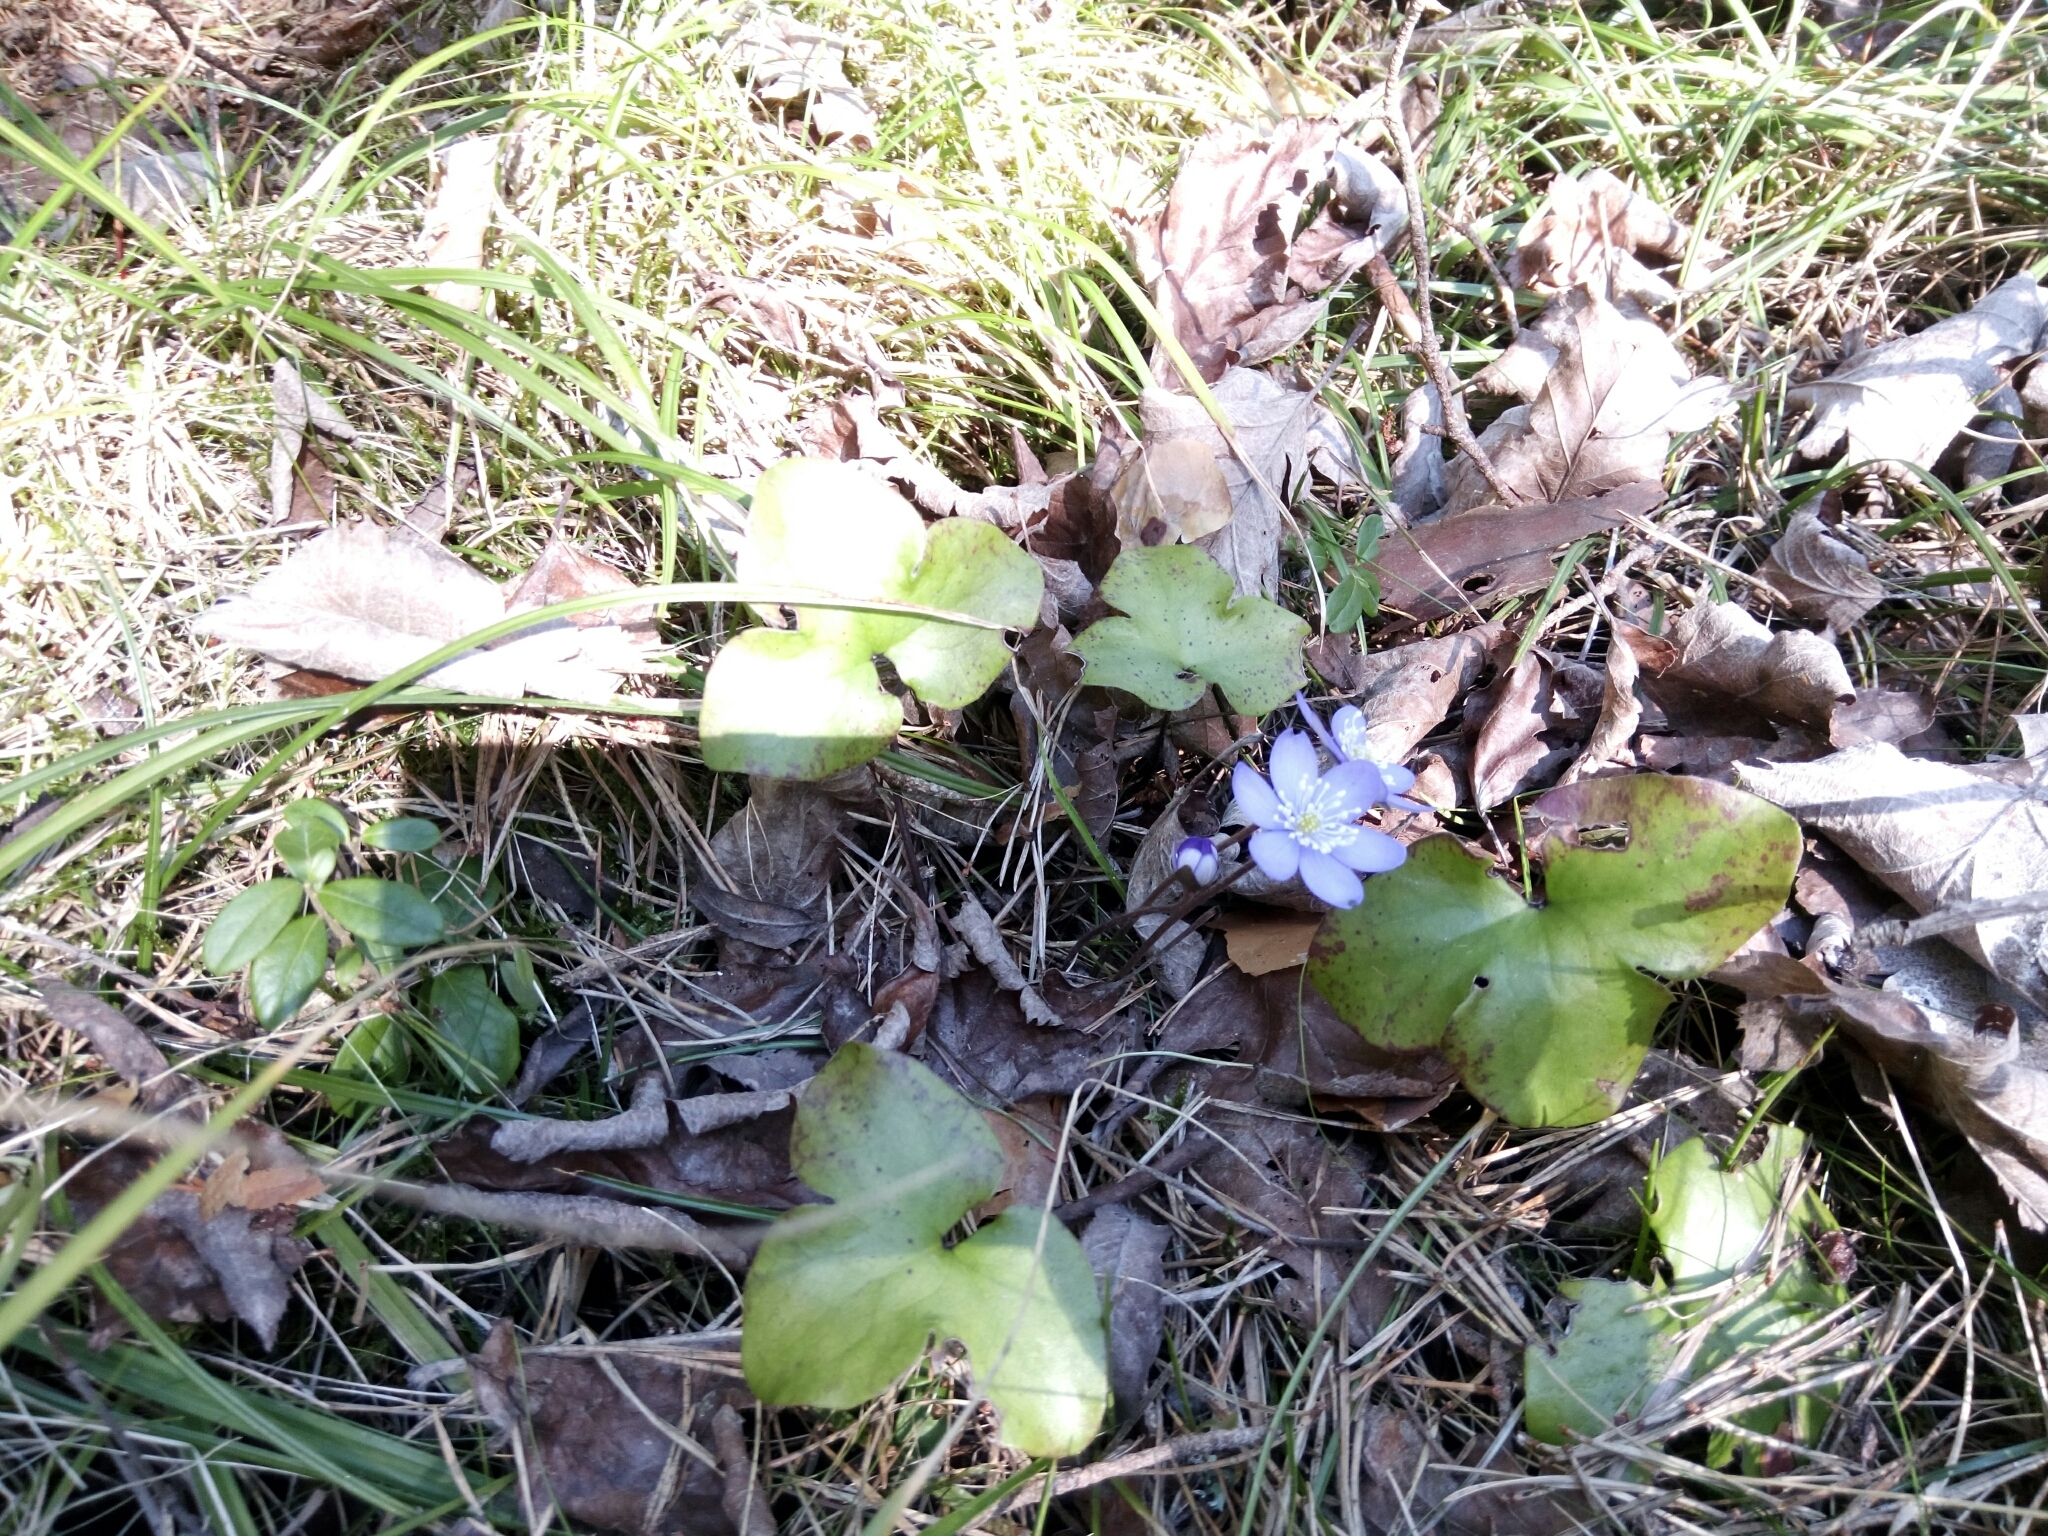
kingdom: Plantae
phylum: Tracheophyta
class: Magnoliopsida
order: Ranunculales
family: Ranunculaceae
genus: Hepatica
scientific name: Hepatica nobilis
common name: Liverleaf
